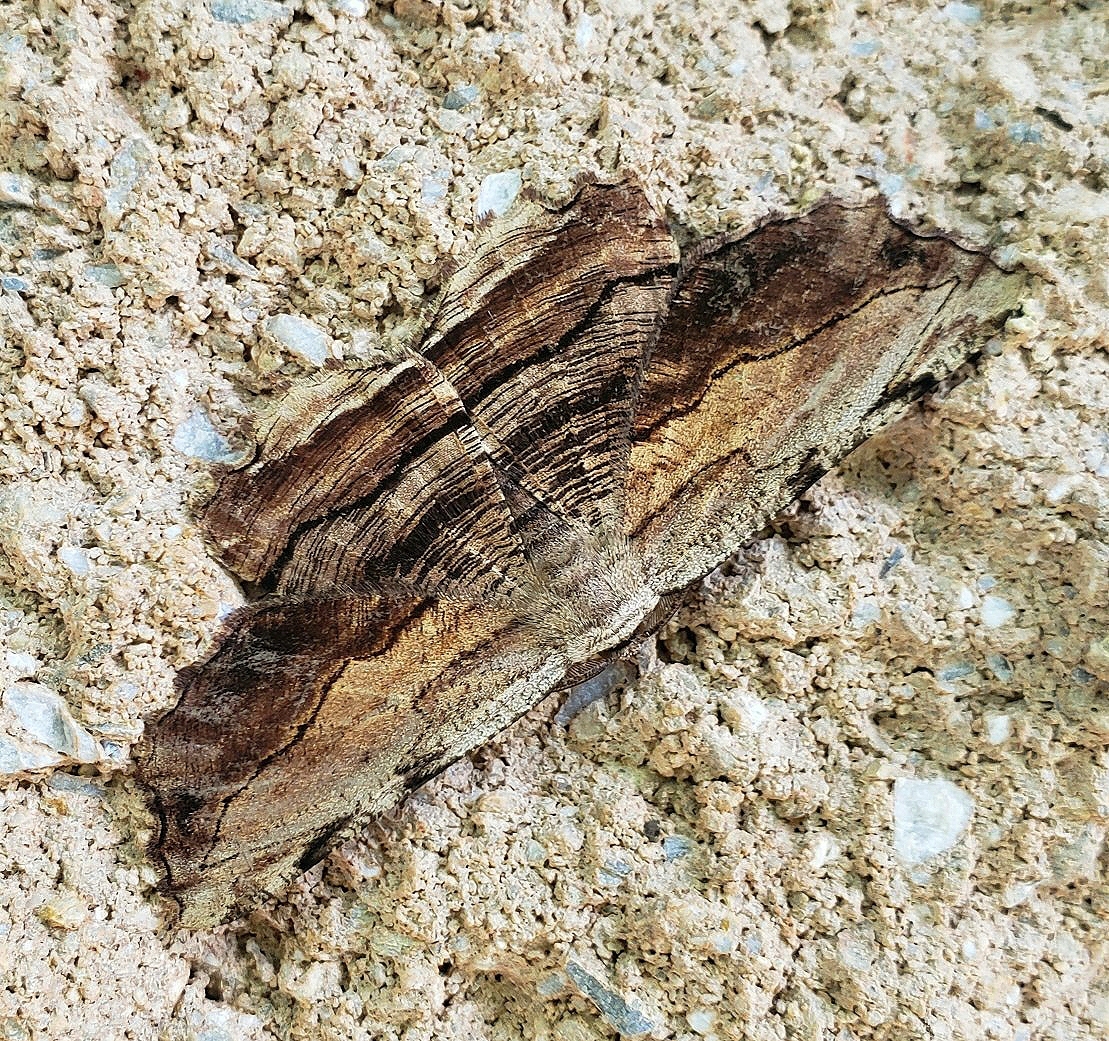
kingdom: Animalia
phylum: Arthropoda
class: Insecta
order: Lepidoptera
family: Geometridae
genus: Lytrosis
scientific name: Lytrosis unitaria
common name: Common lytrosis
